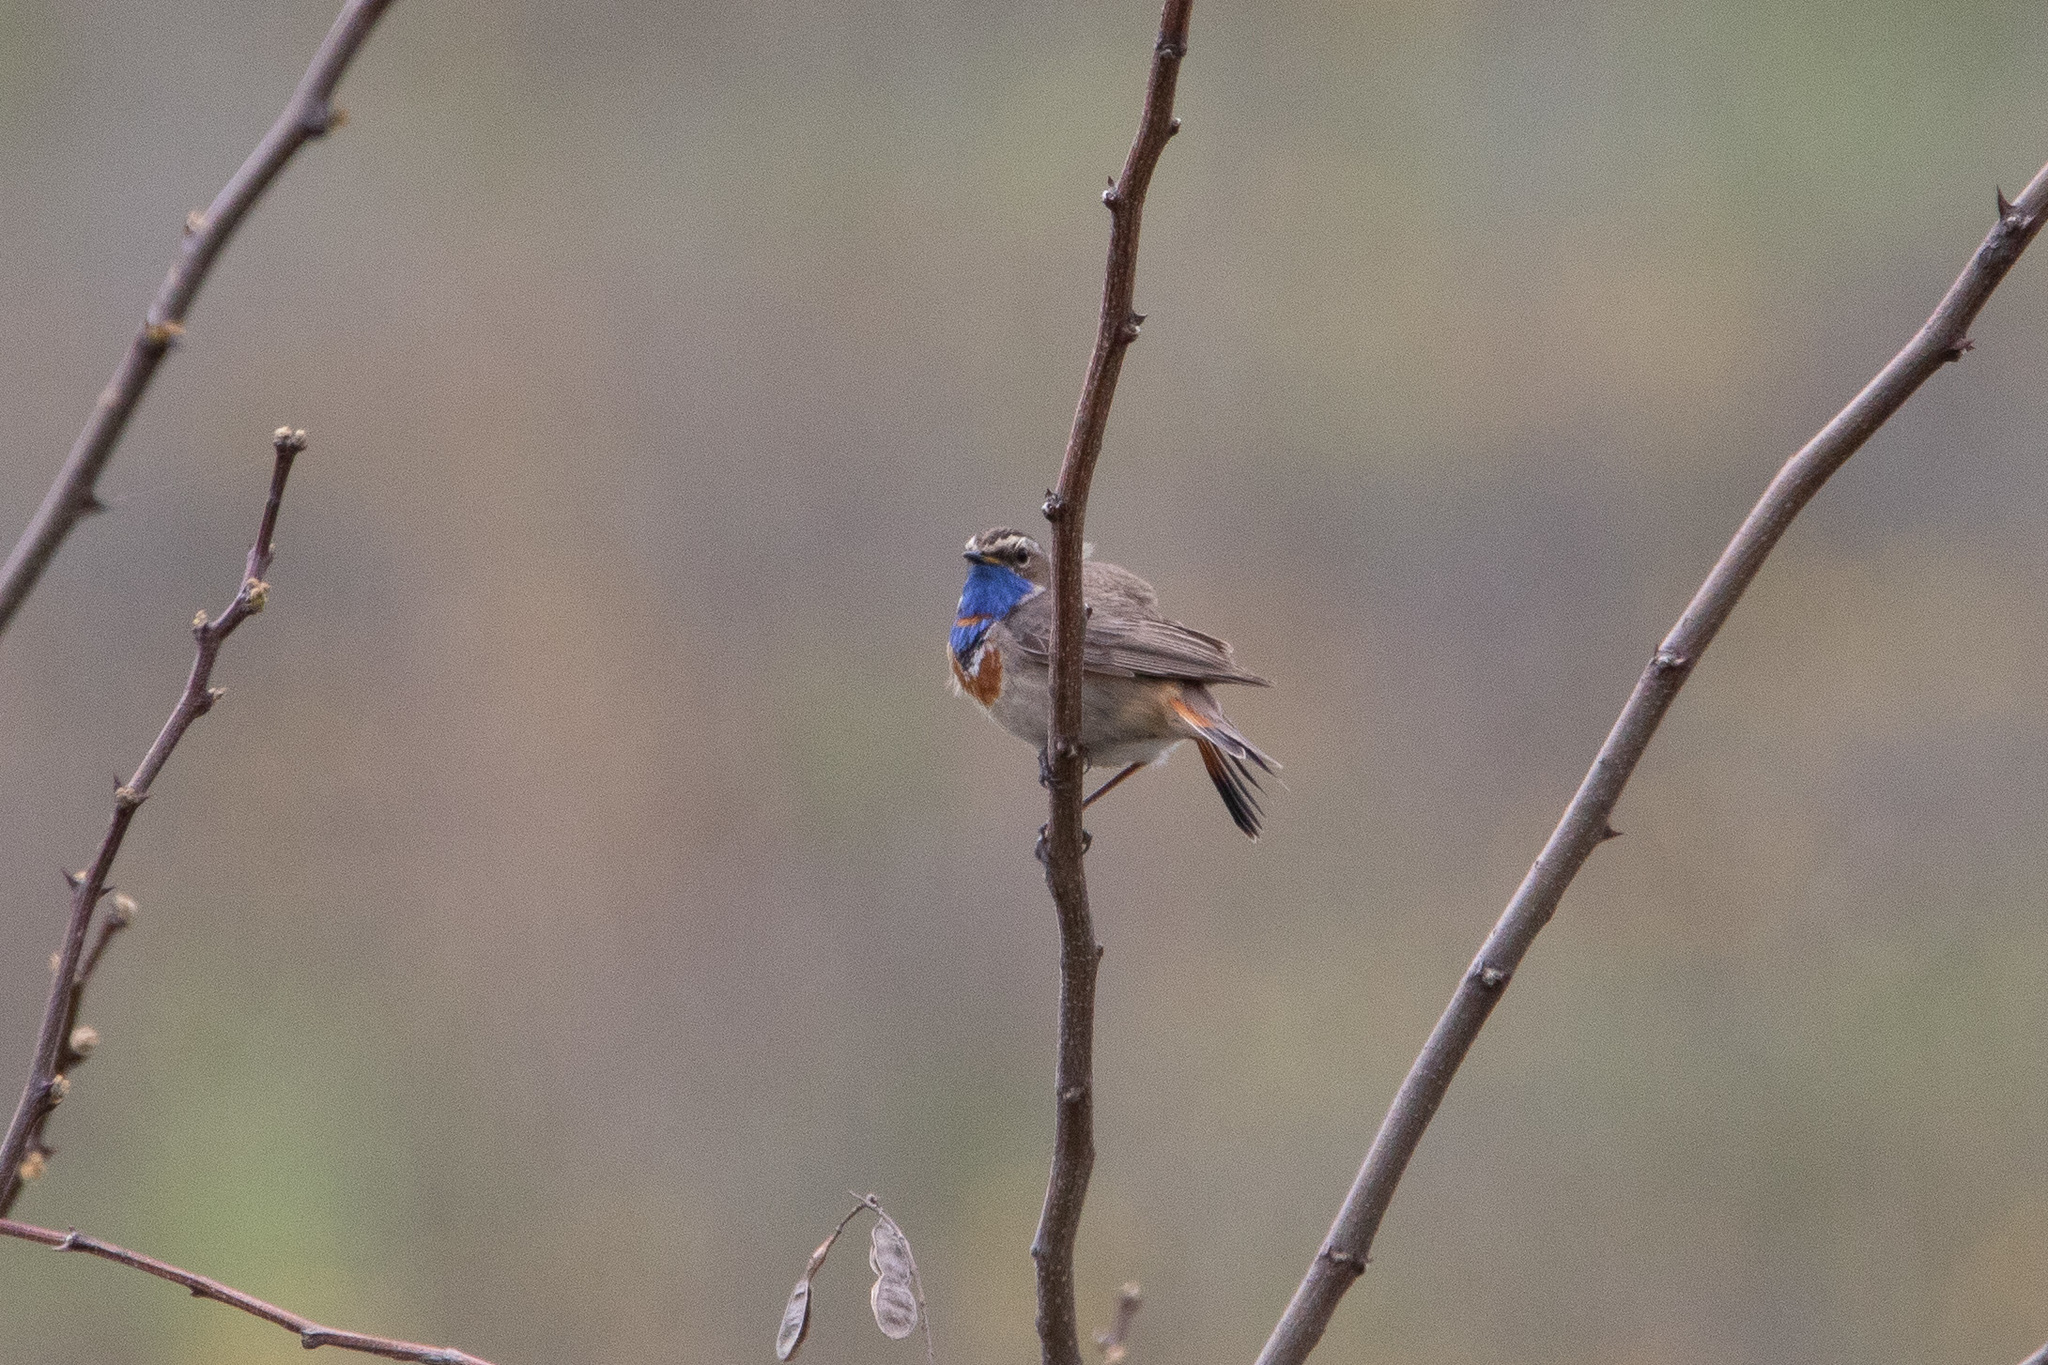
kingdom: Animalia
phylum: Chordata
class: Aves
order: Passeriformes
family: Muscicapidae
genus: Luscinia
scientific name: Luscinia svecica
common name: Bluethroat
